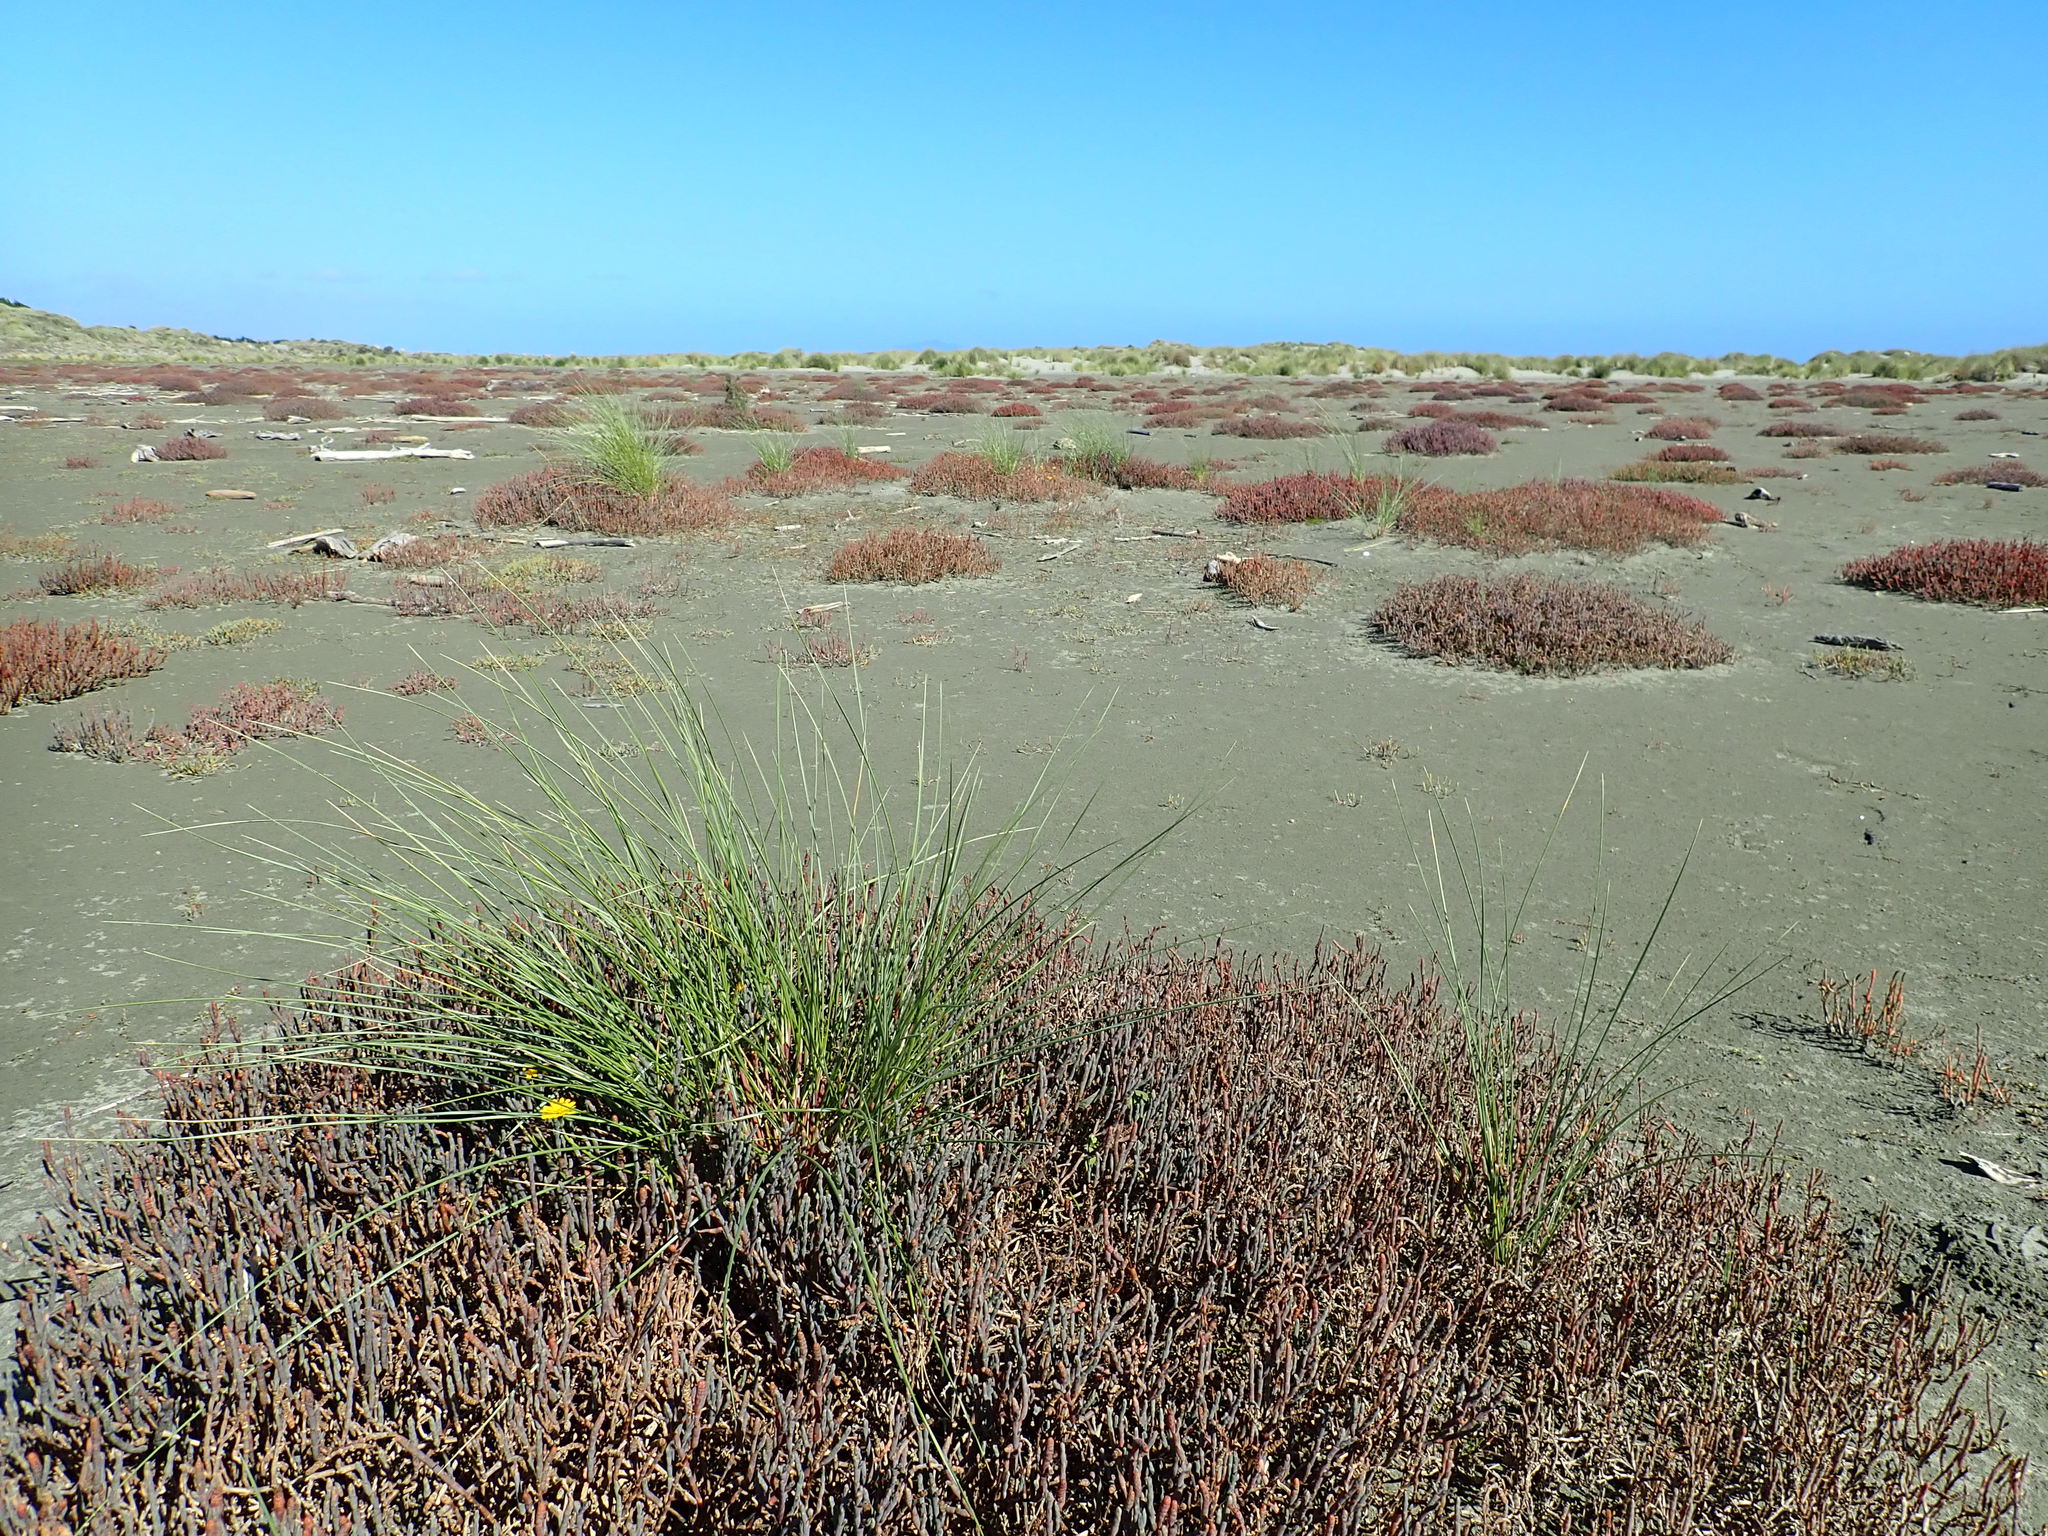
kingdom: Plantae
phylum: Tracheophyta
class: Liliopsida
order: Poales
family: Poaceae
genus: Calamagrostis
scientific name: Calamagrostis arenaria
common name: European beachgrass
